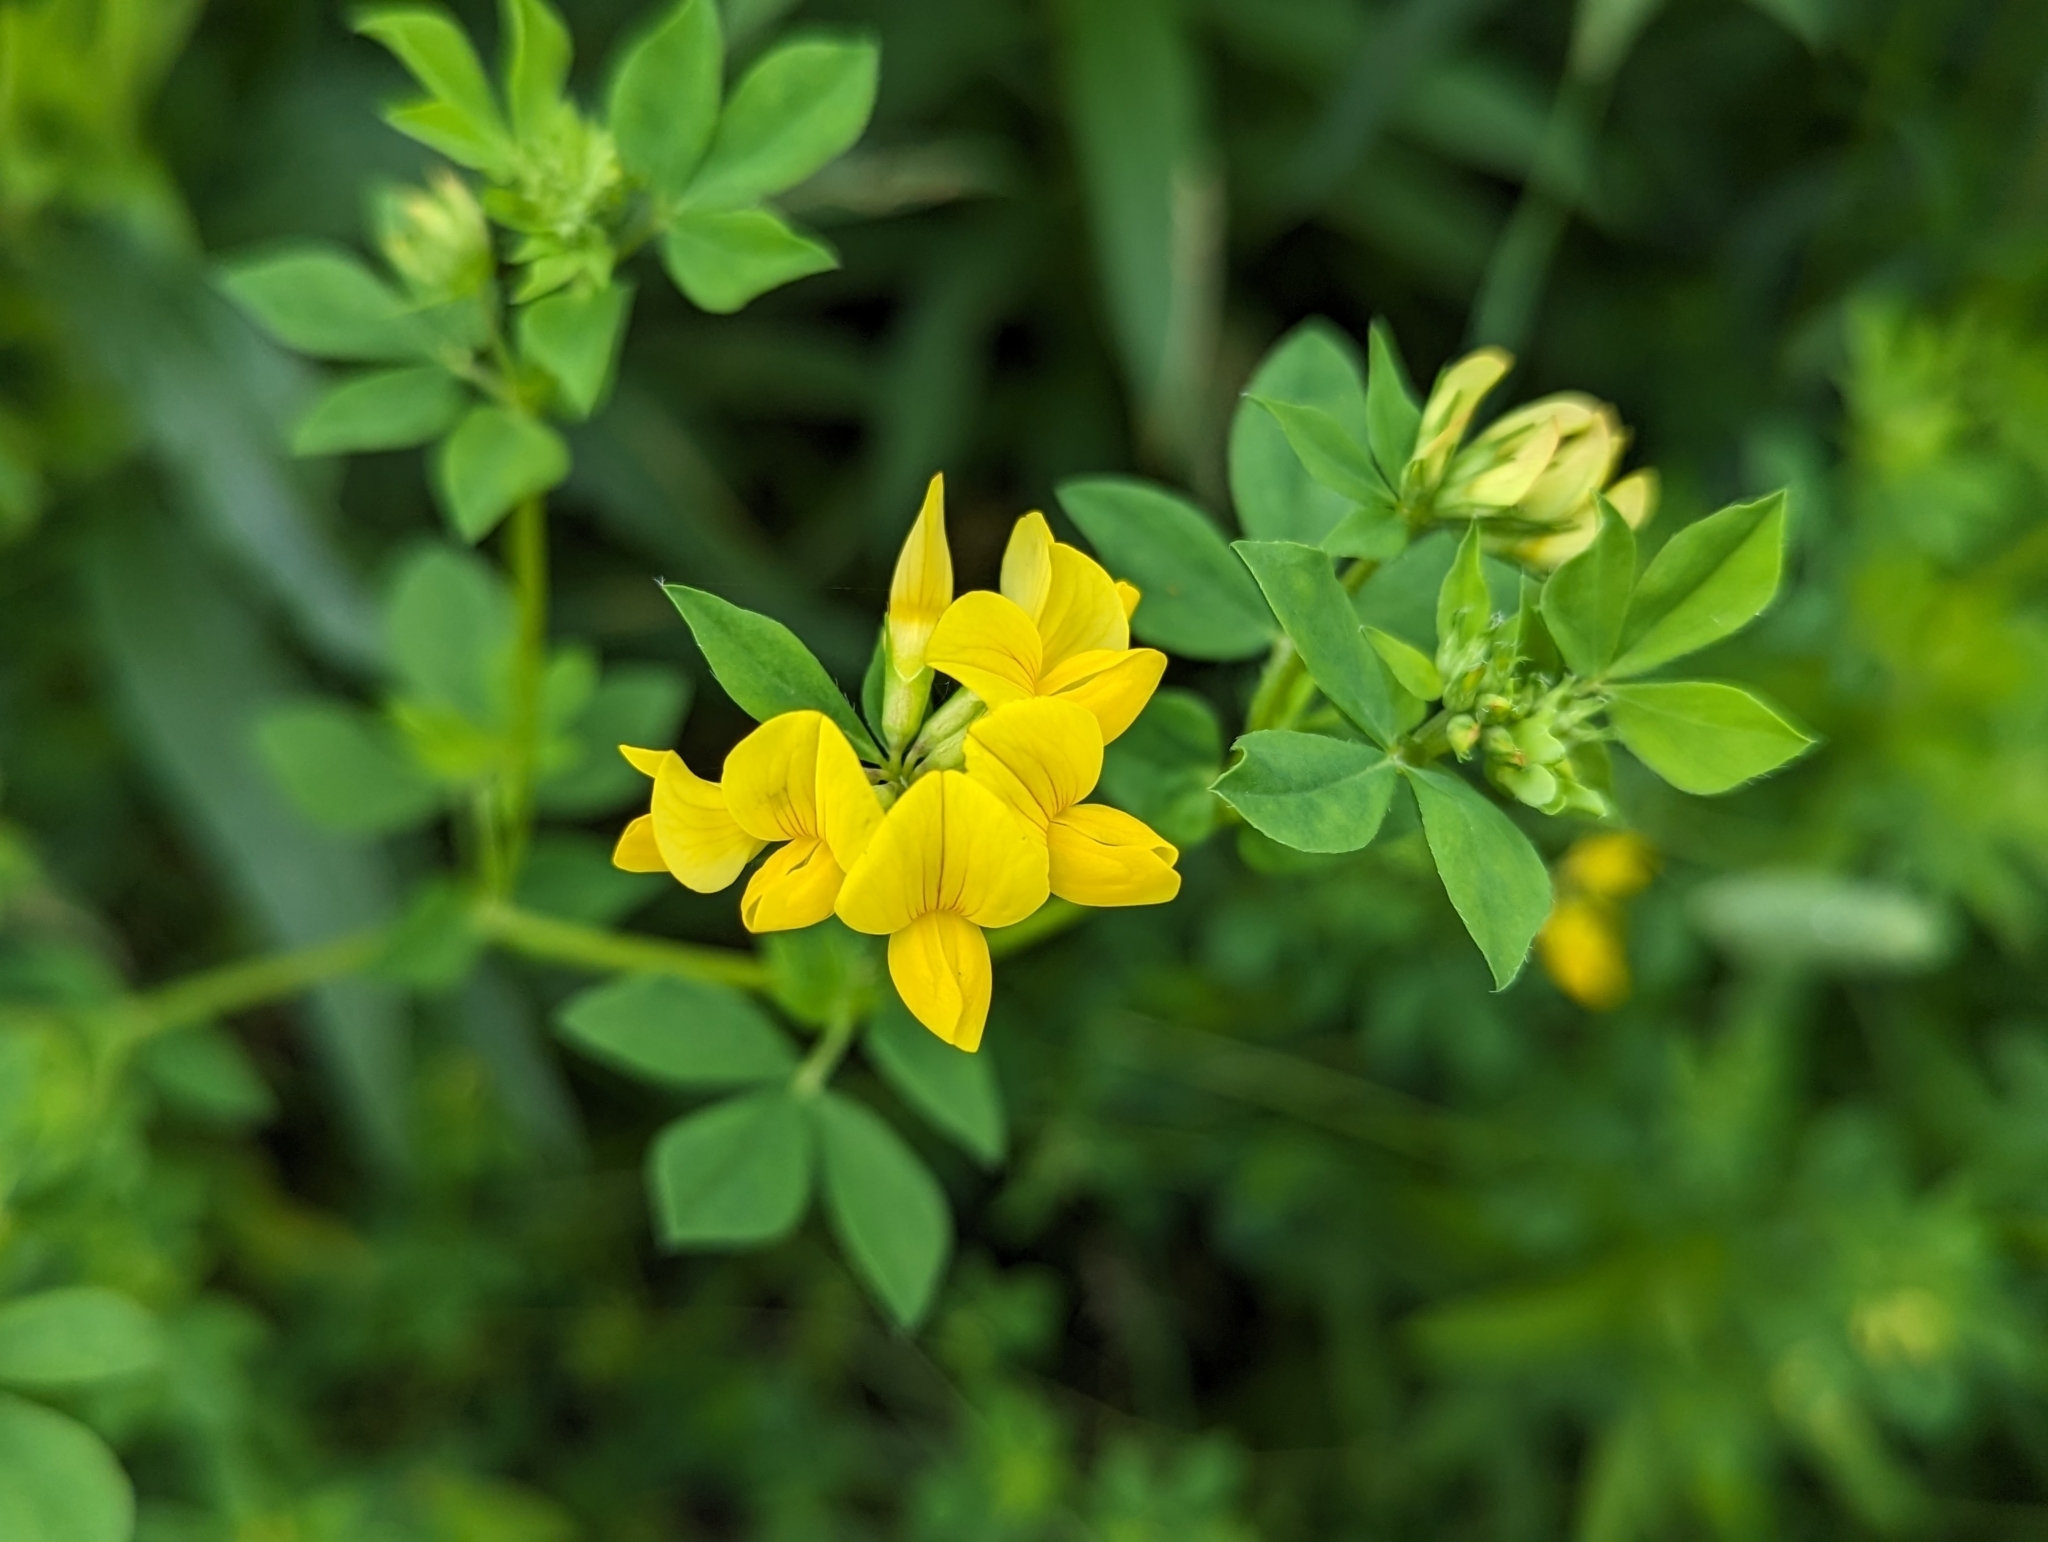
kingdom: Plantae
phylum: Tracheophyta
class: Magnoliopsida
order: Fabales
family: Fabaceae
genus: Lotus
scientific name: Lotus corniculatus
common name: Common bird's-foot-trefoil
